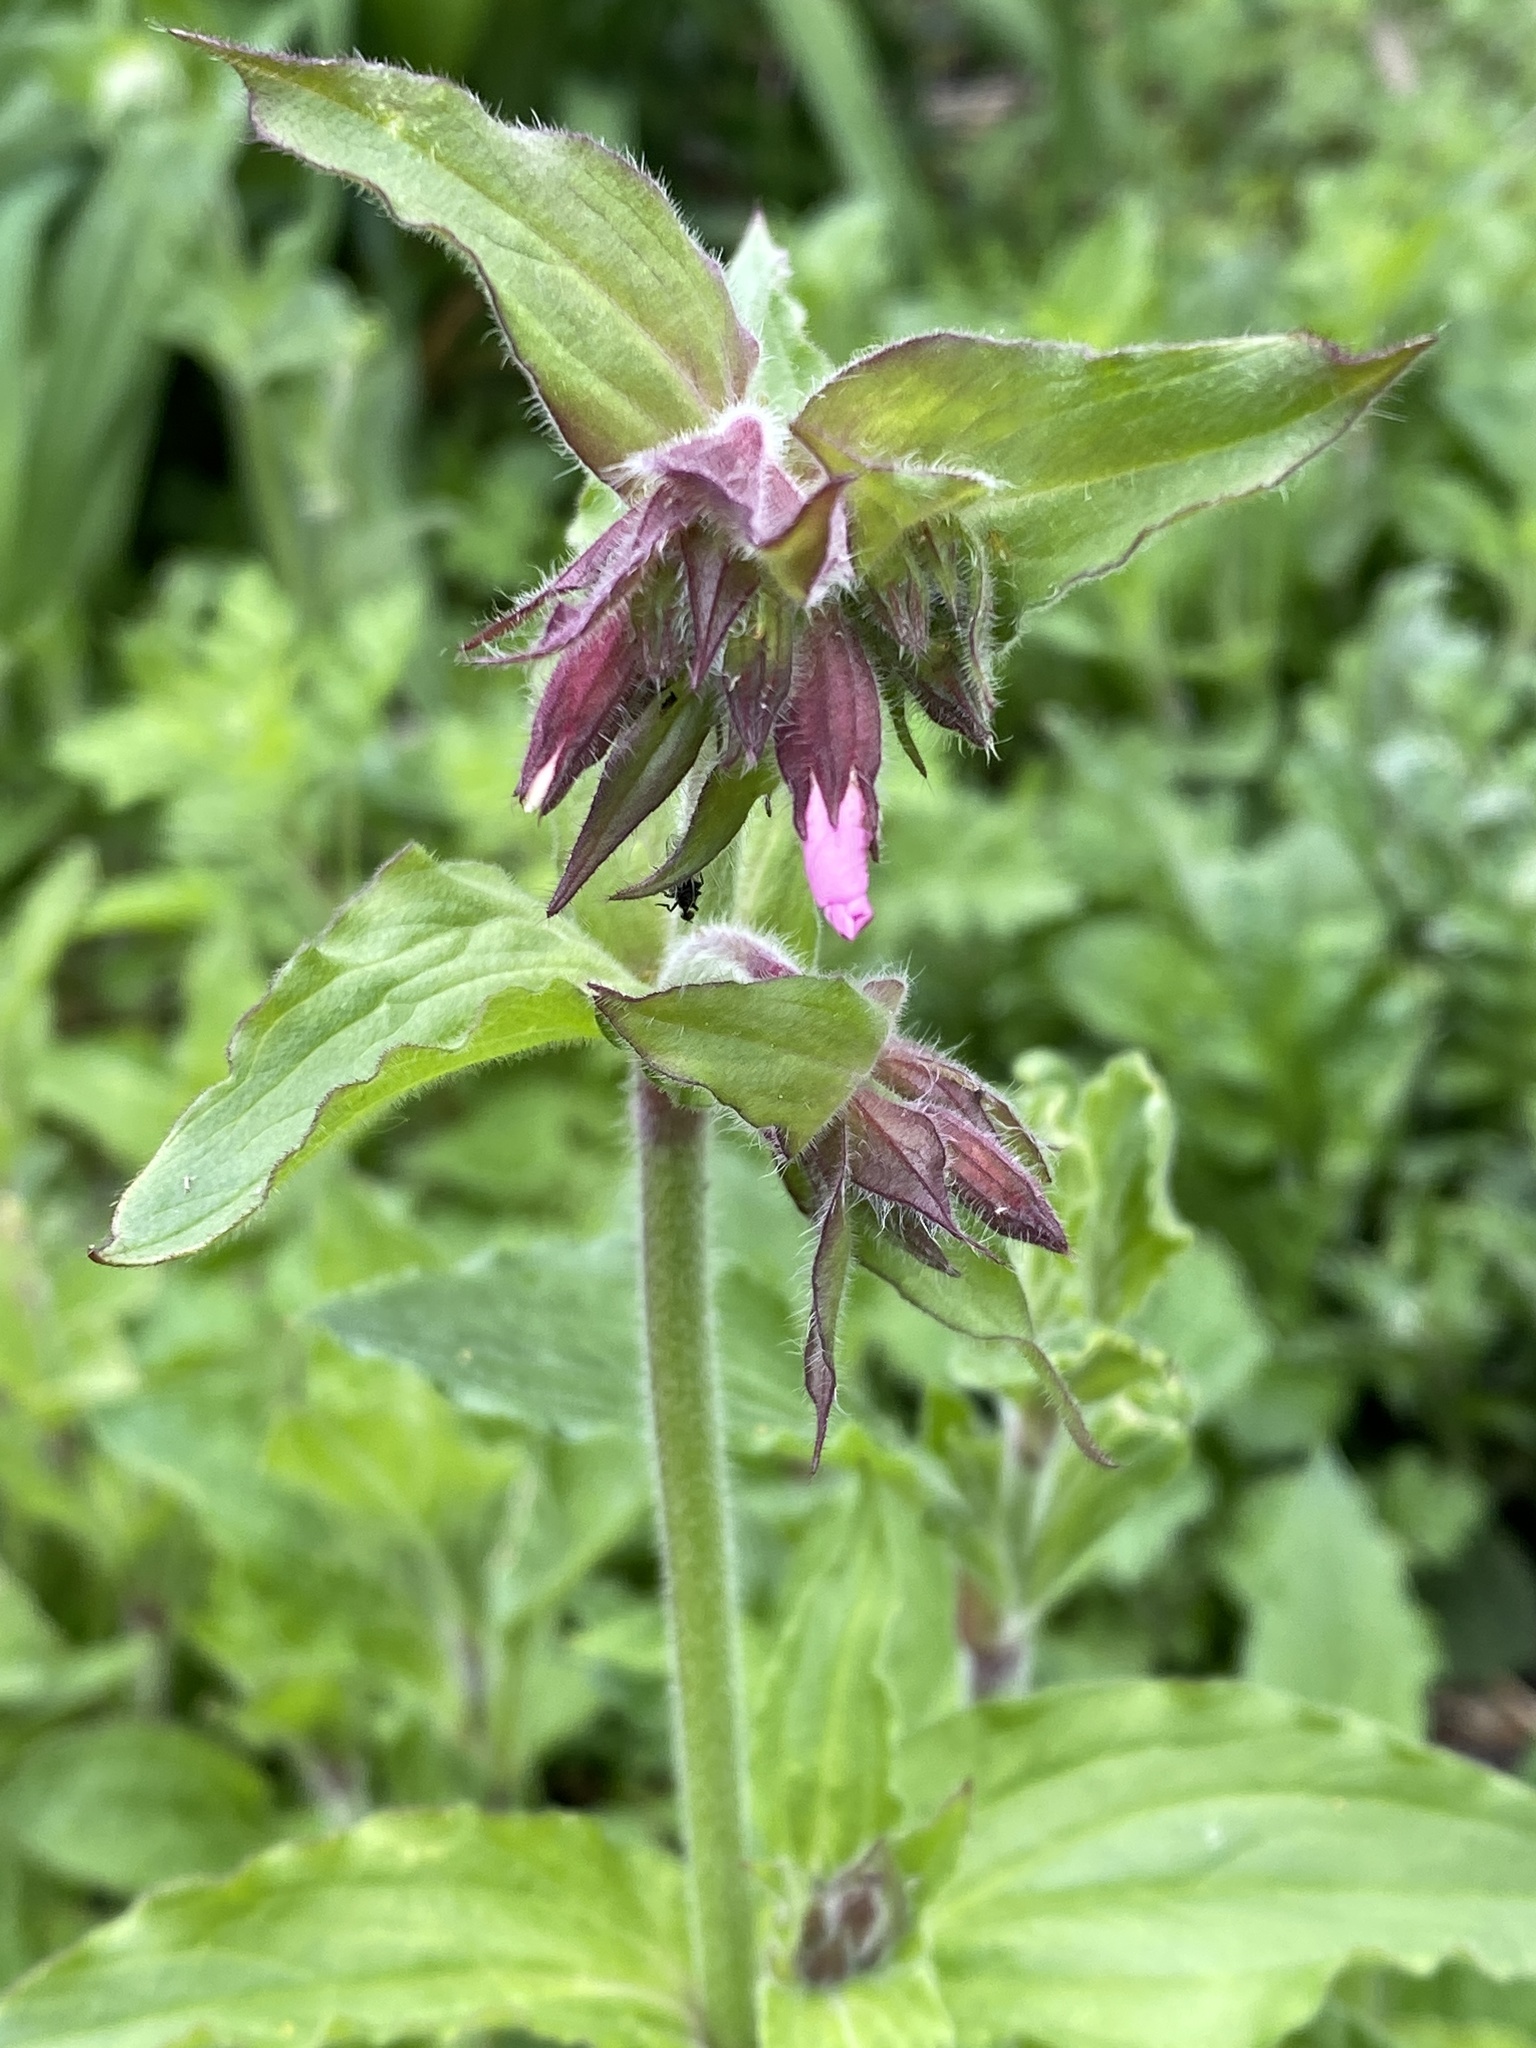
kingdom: Plantae
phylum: Tracheophyta
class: Magnoliopsida
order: Caryophyllales
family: Caryophyllaceae
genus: Silene
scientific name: Silene dioica
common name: Red campion
